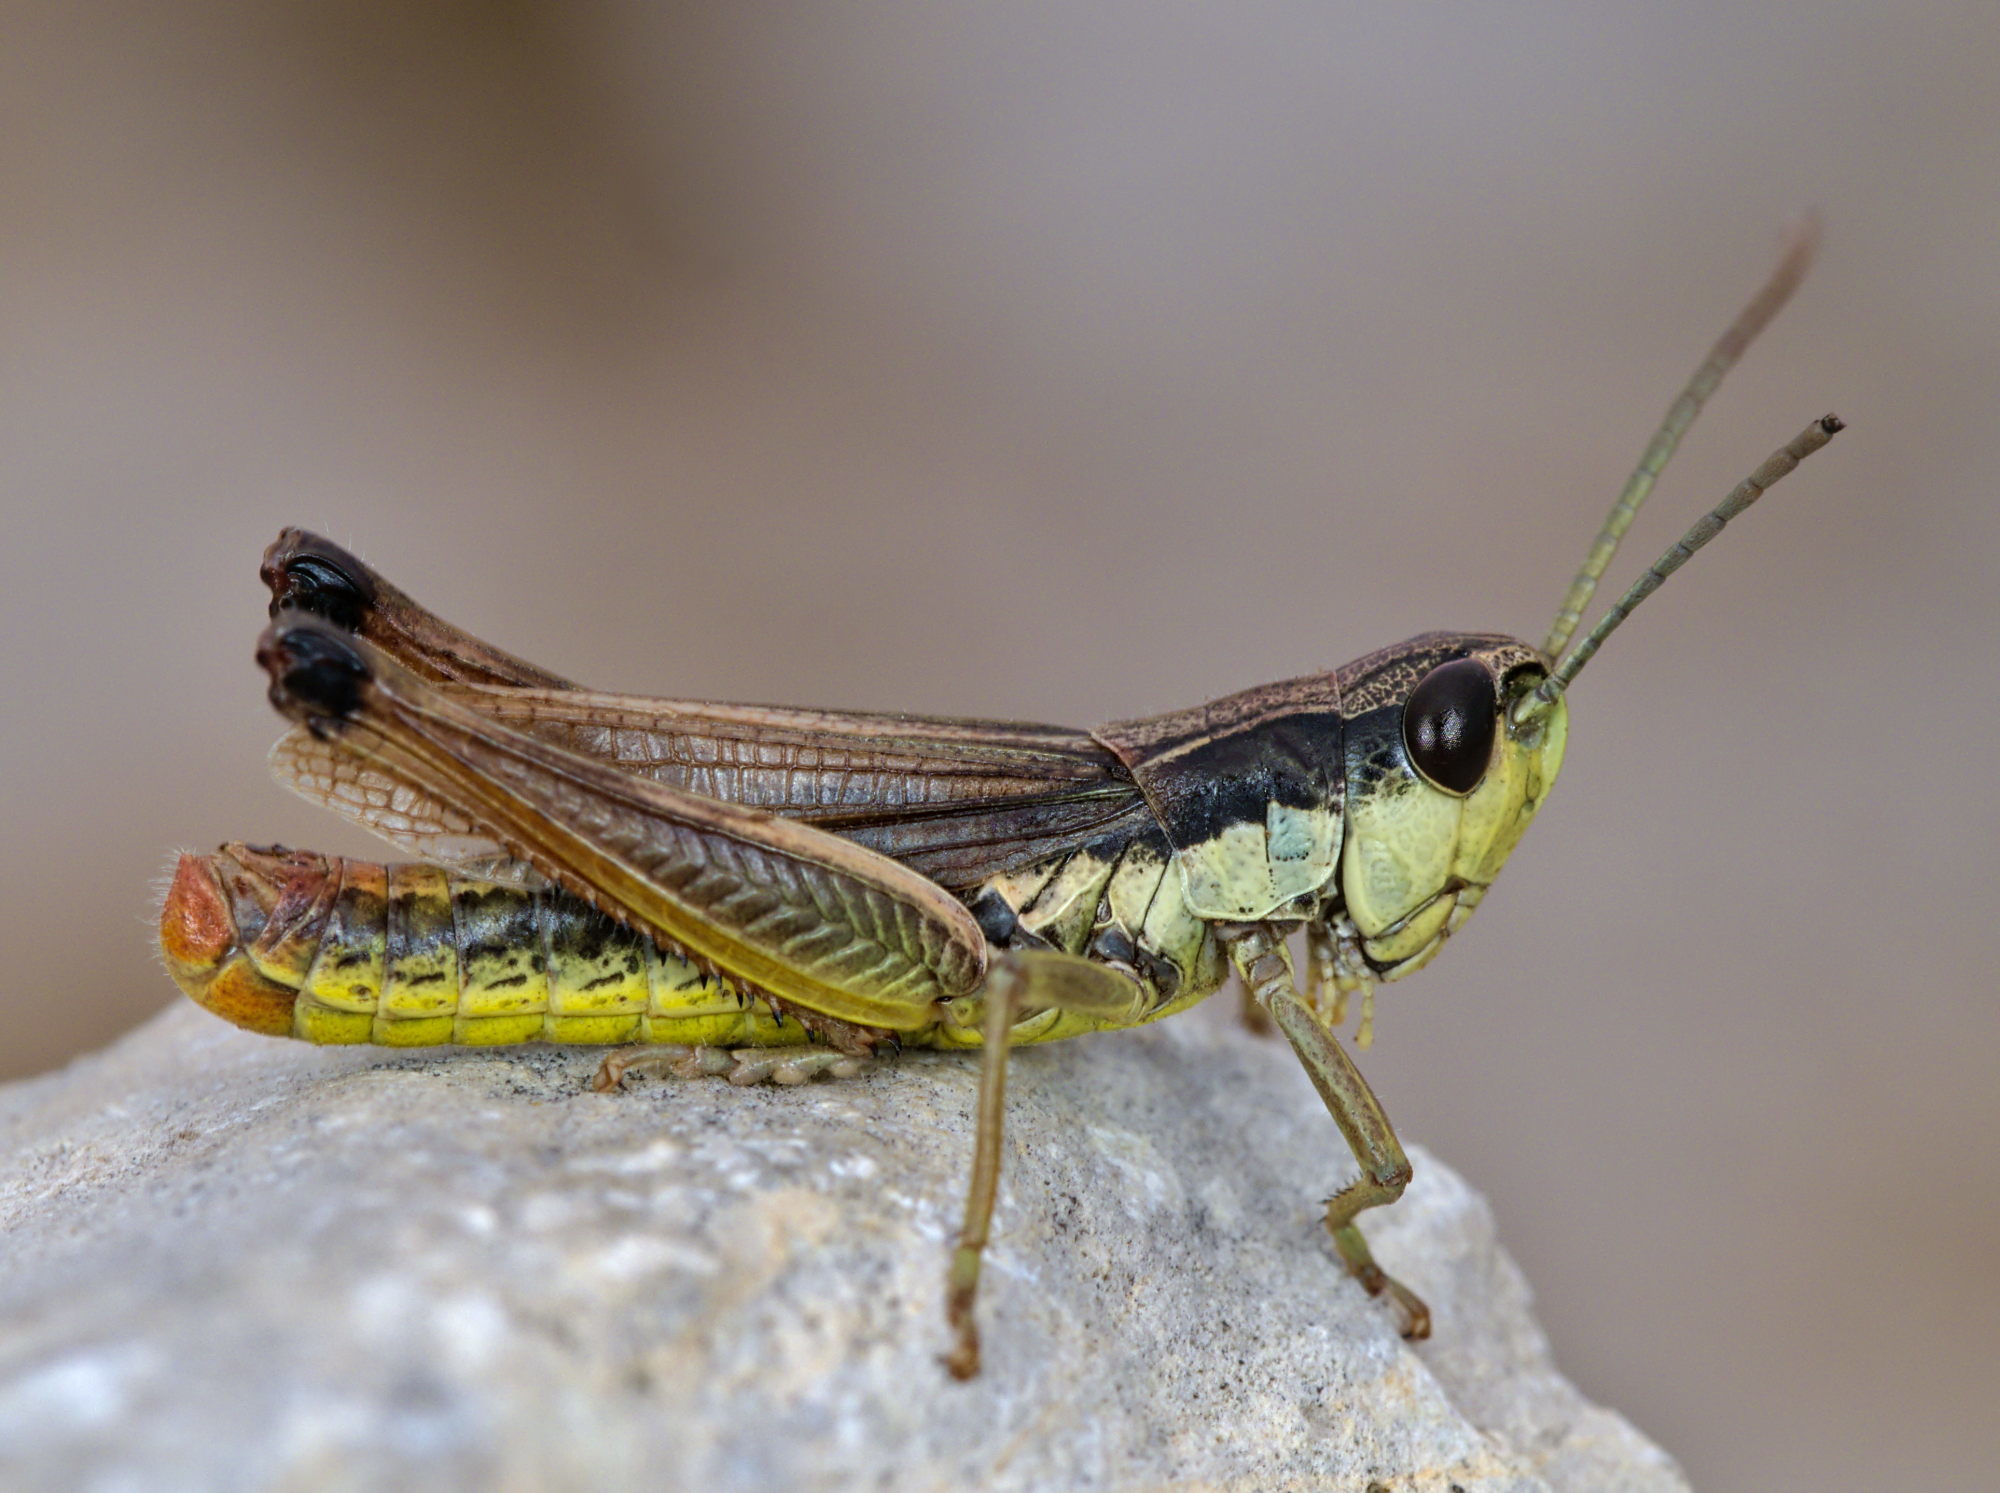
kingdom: Animalia
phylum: Arthropoda
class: Insecta
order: Orthoptera
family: Acrididae
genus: Pseudochorthippus
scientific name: Pseudochorthippus parallelus
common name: Meadow grasshopper
